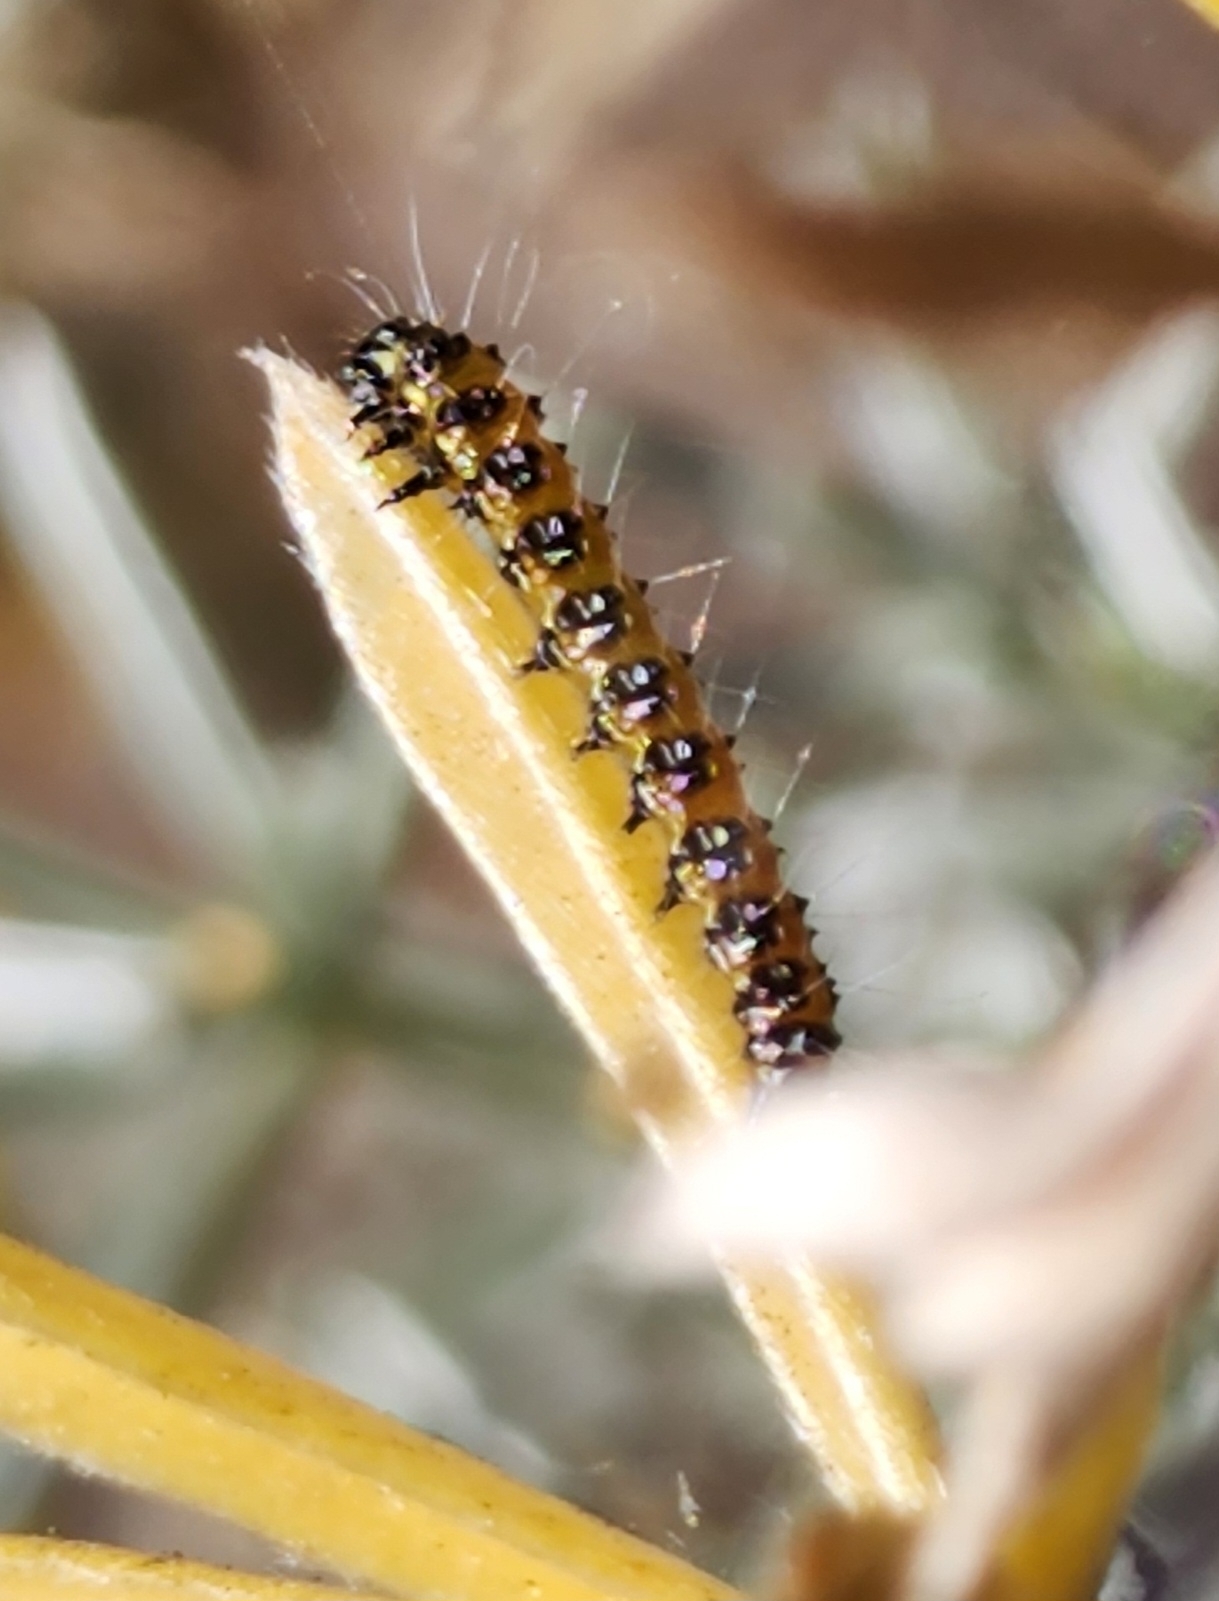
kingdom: Animalia
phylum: Arthropoda
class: Insecta
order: Lepidoptera
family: Crambidae
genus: Uresiphita
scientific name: Uresiphita reversalis
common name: Genista broom moth
